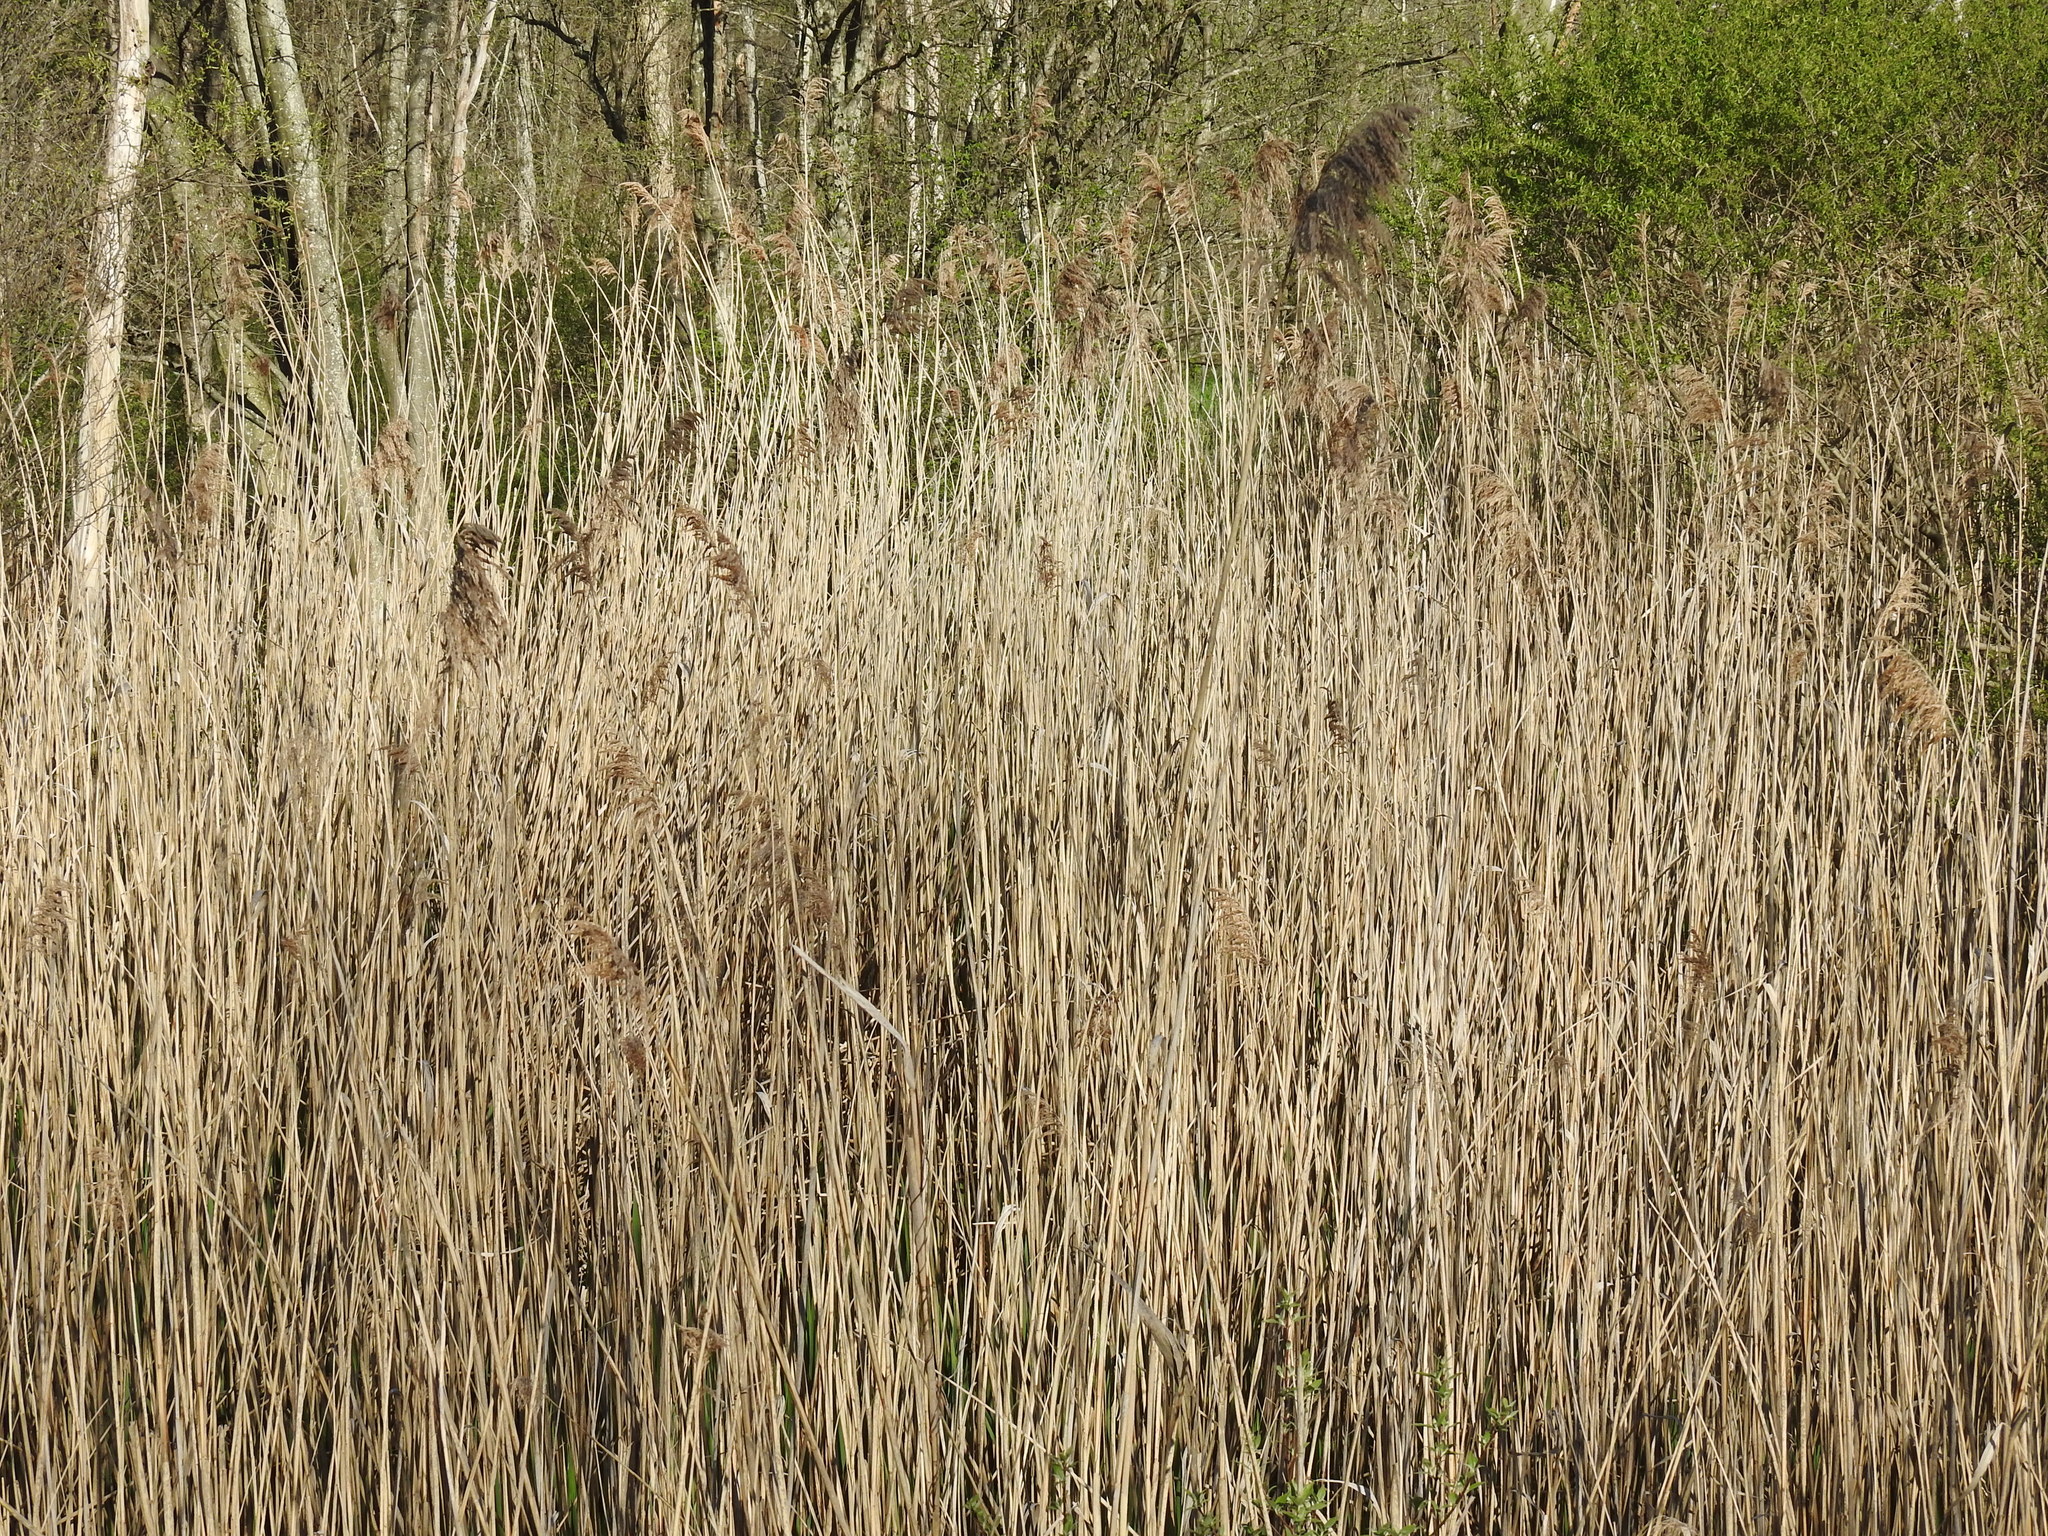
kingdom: Plantae
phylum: Tracheophyta
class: Liliopsida
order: Poales
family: Poaceae
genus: Phragmites
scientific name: Phragmites australis
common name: Common reed
